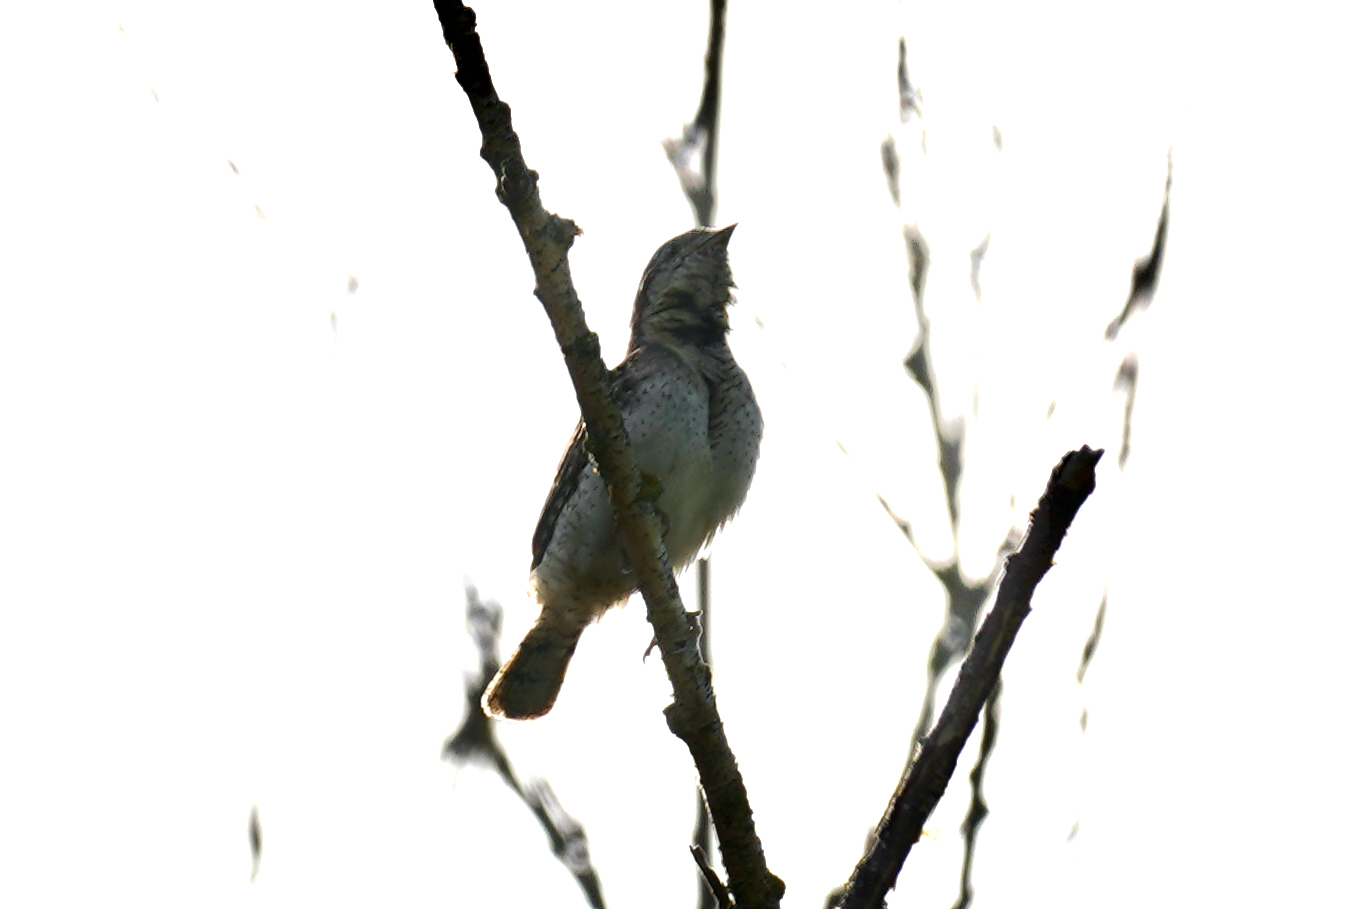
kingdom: Animalia
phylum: Chordata
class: Aves
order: Piciformes
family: Picidae
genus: Jynx
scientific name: Jynx torquilla
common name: Eurasian wryneck
